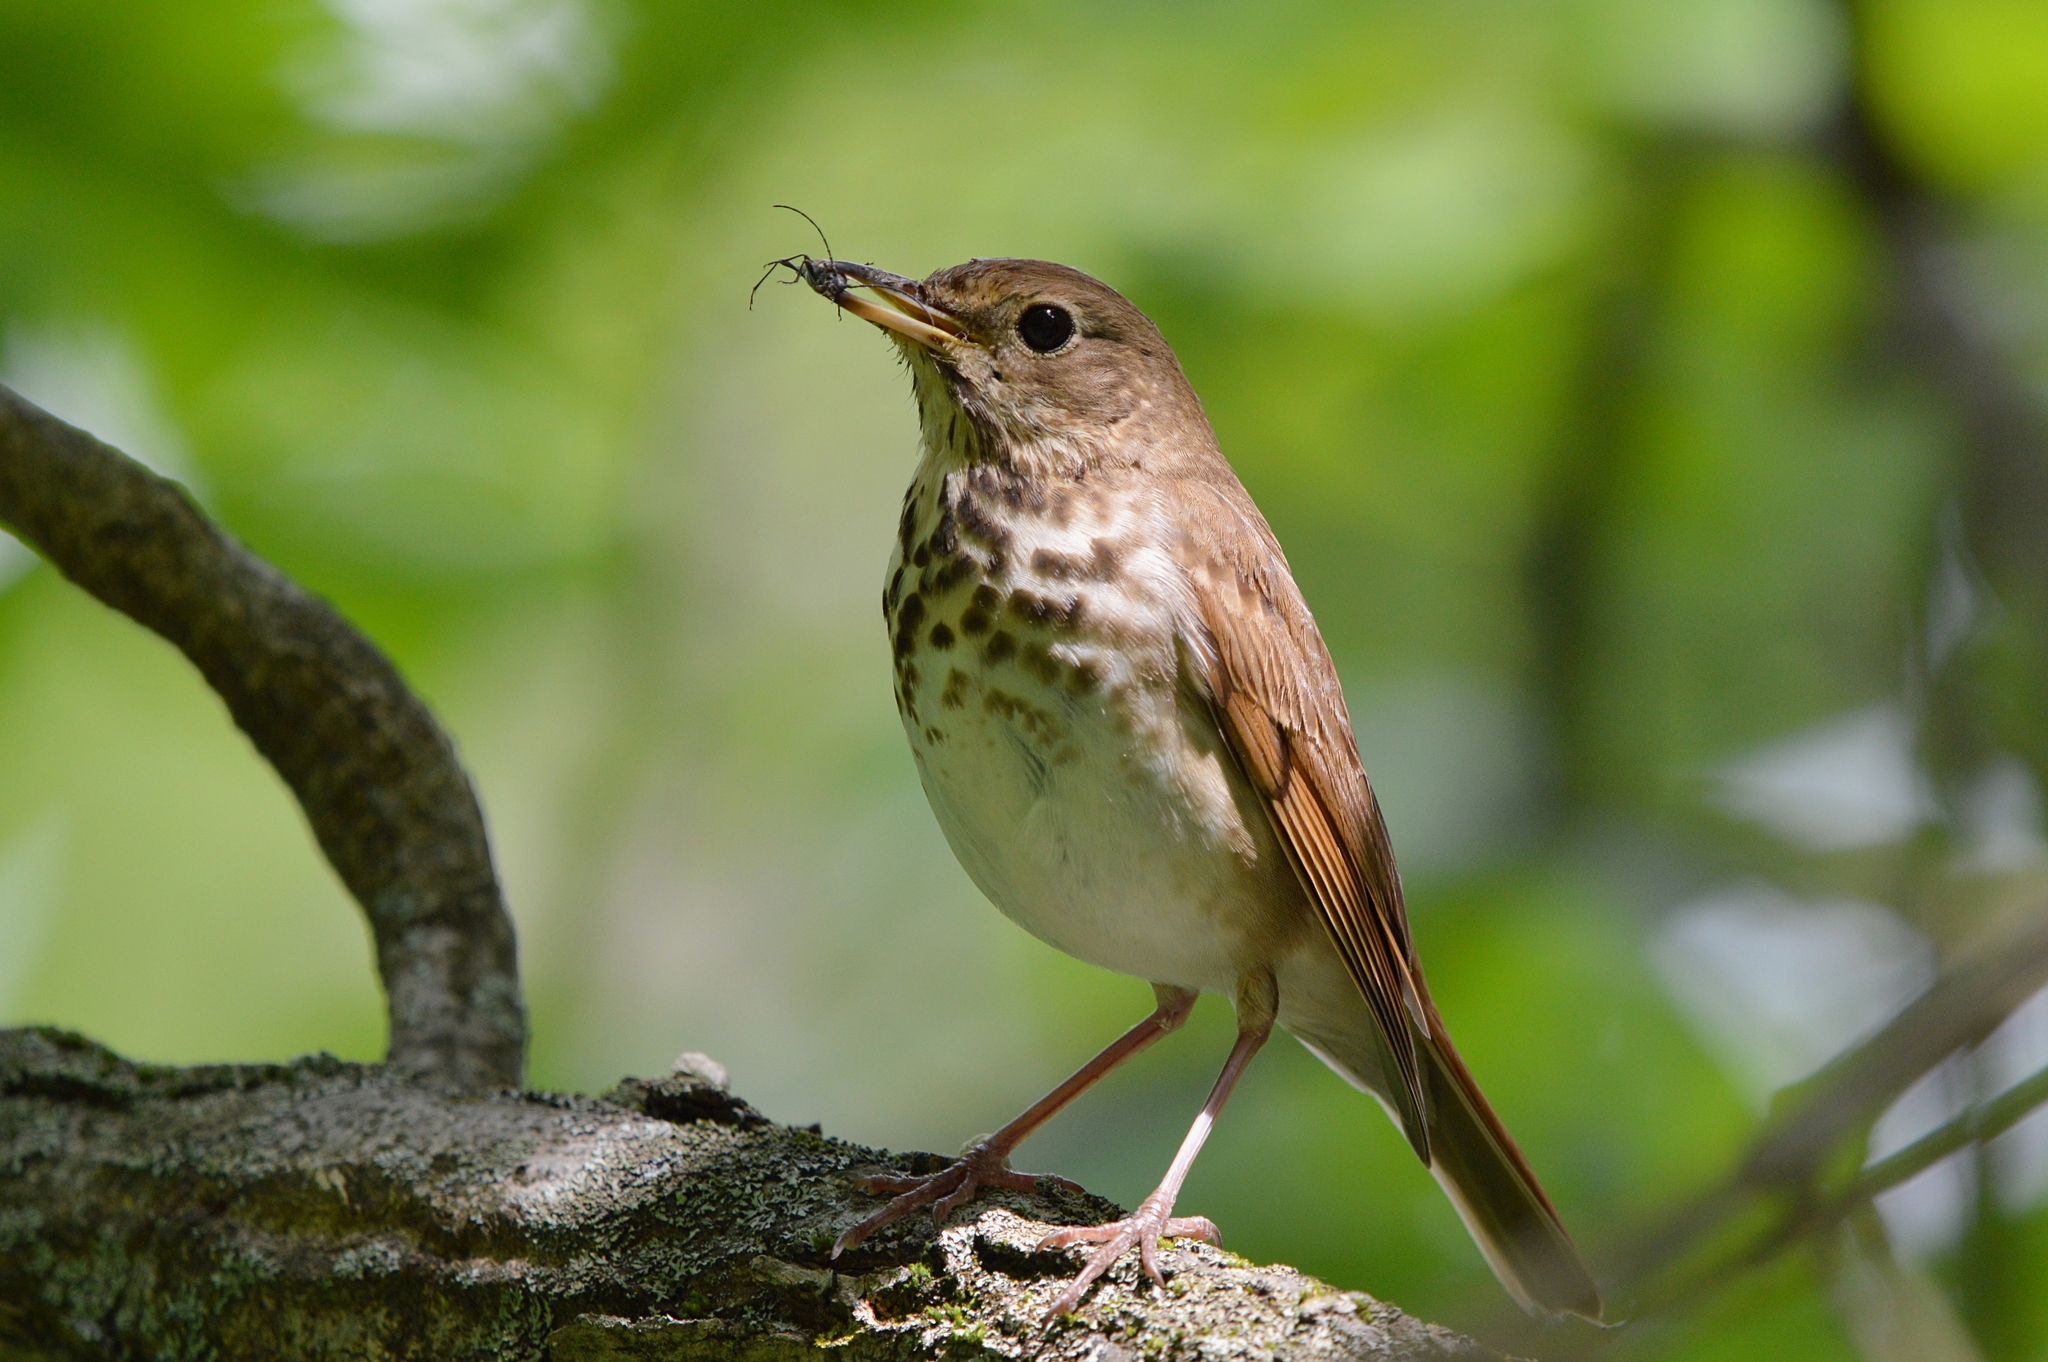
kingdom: Animalia
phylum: Chordata
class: Aves
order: Passeriformes
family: Turdidae
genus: Catharus
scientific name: Catharus guttatus
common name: Hermit thrush
